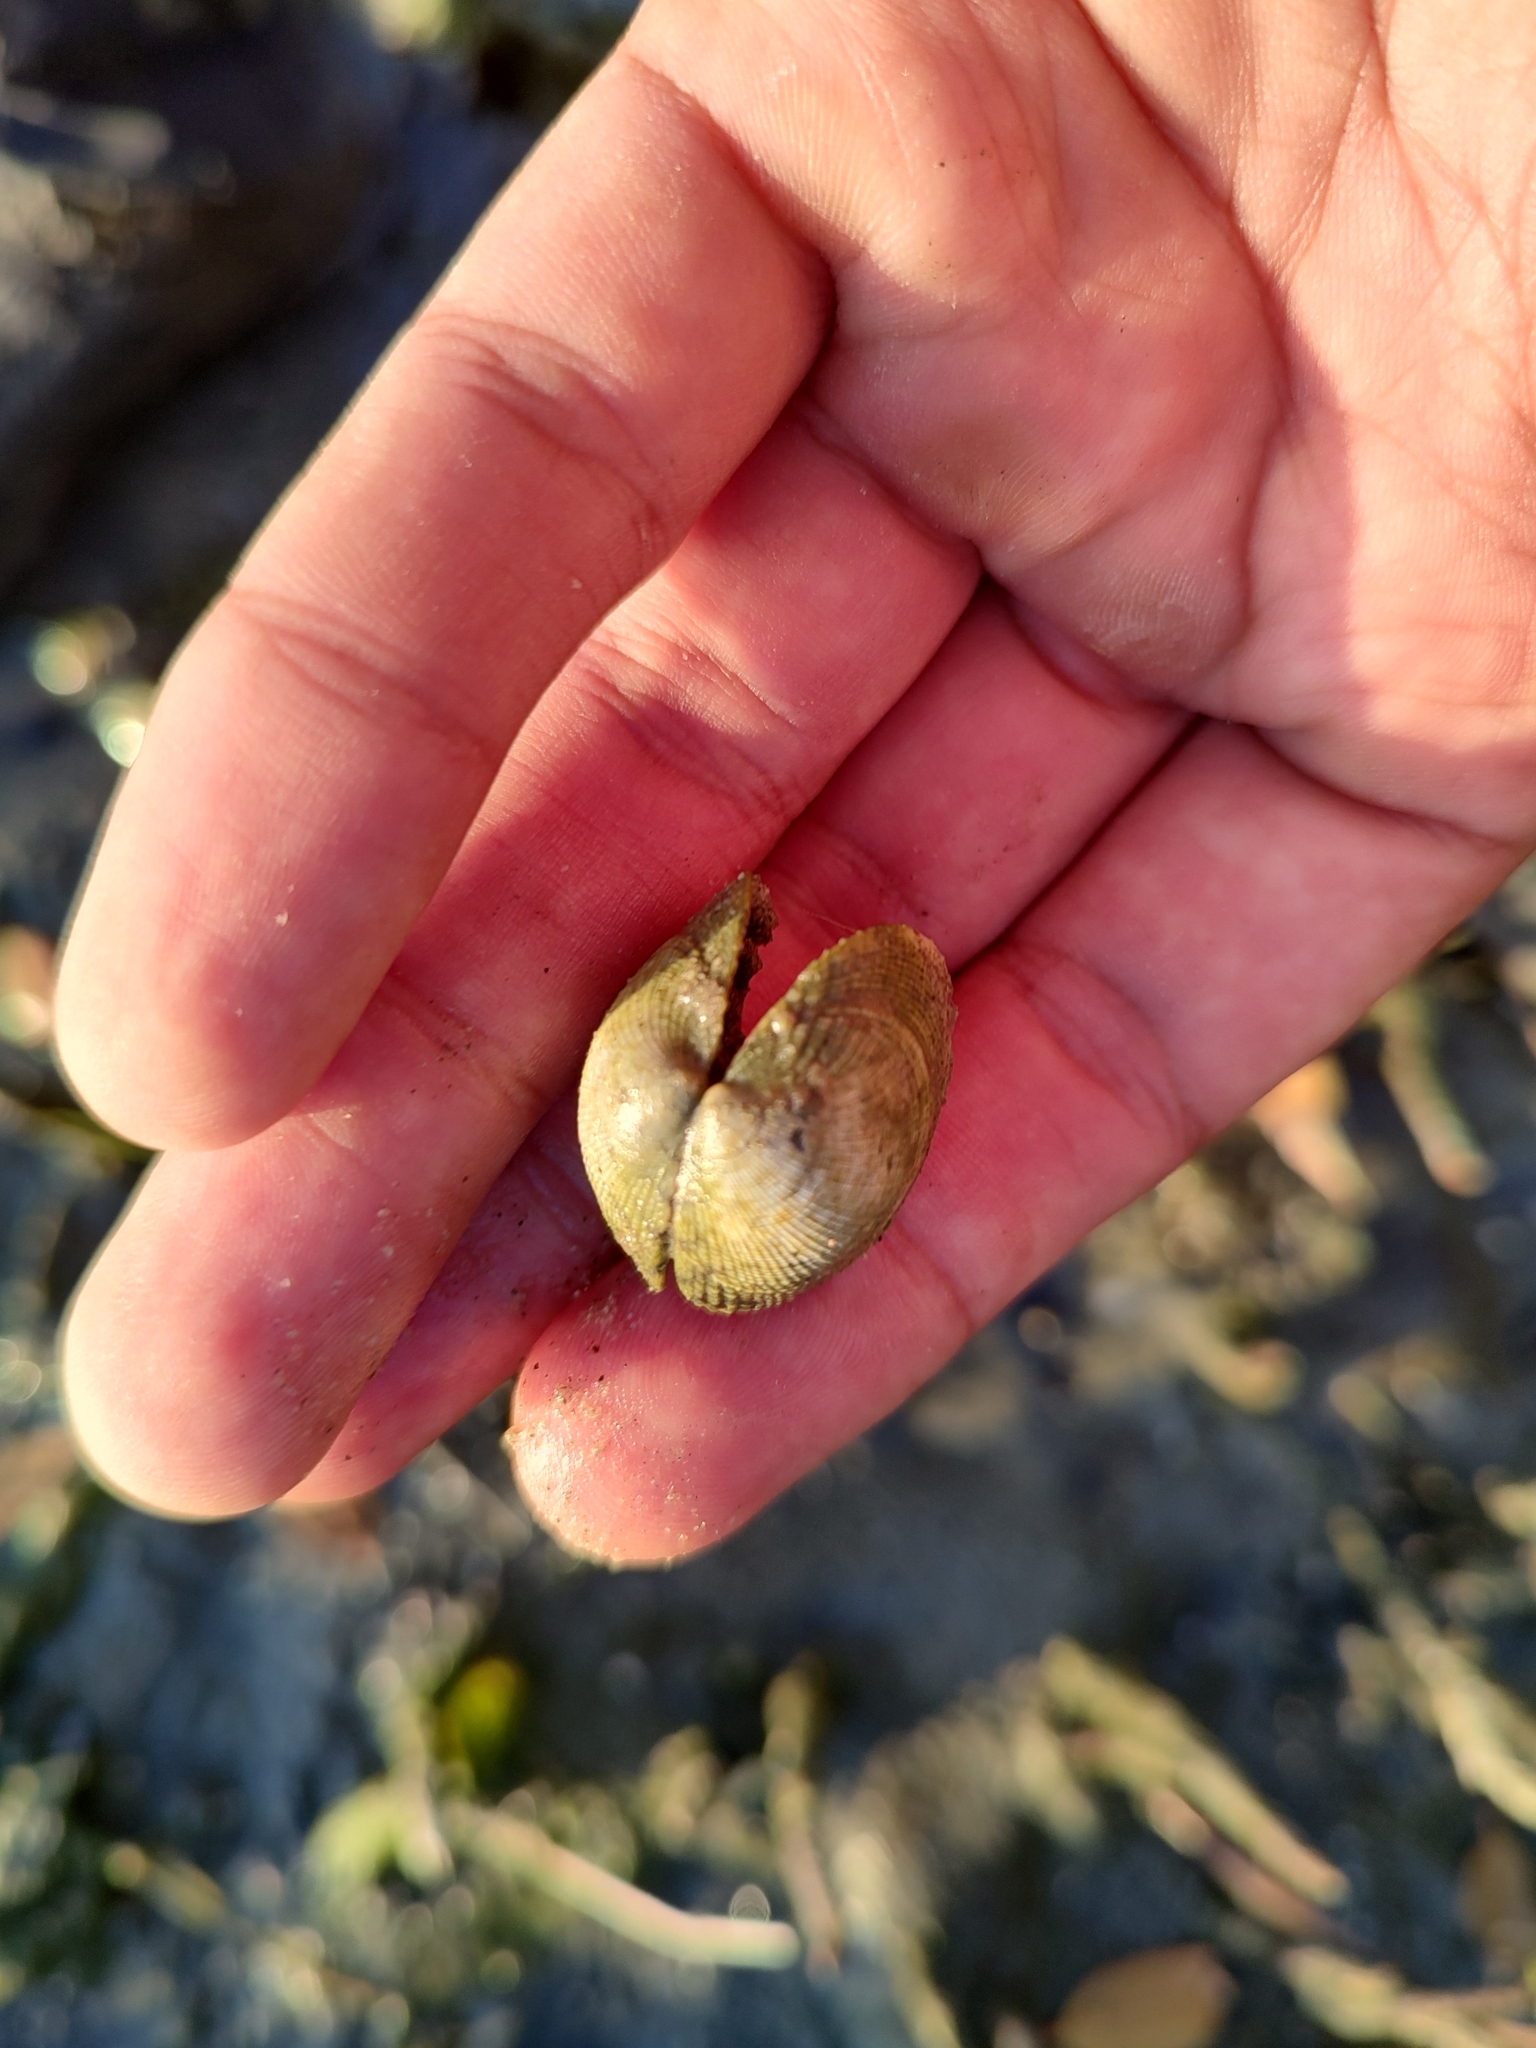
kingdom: Animalia
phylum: Mollusca
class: Bivalvia
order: Venerida
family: Veneridae
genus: Leukoma
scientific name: Leukoma grata
